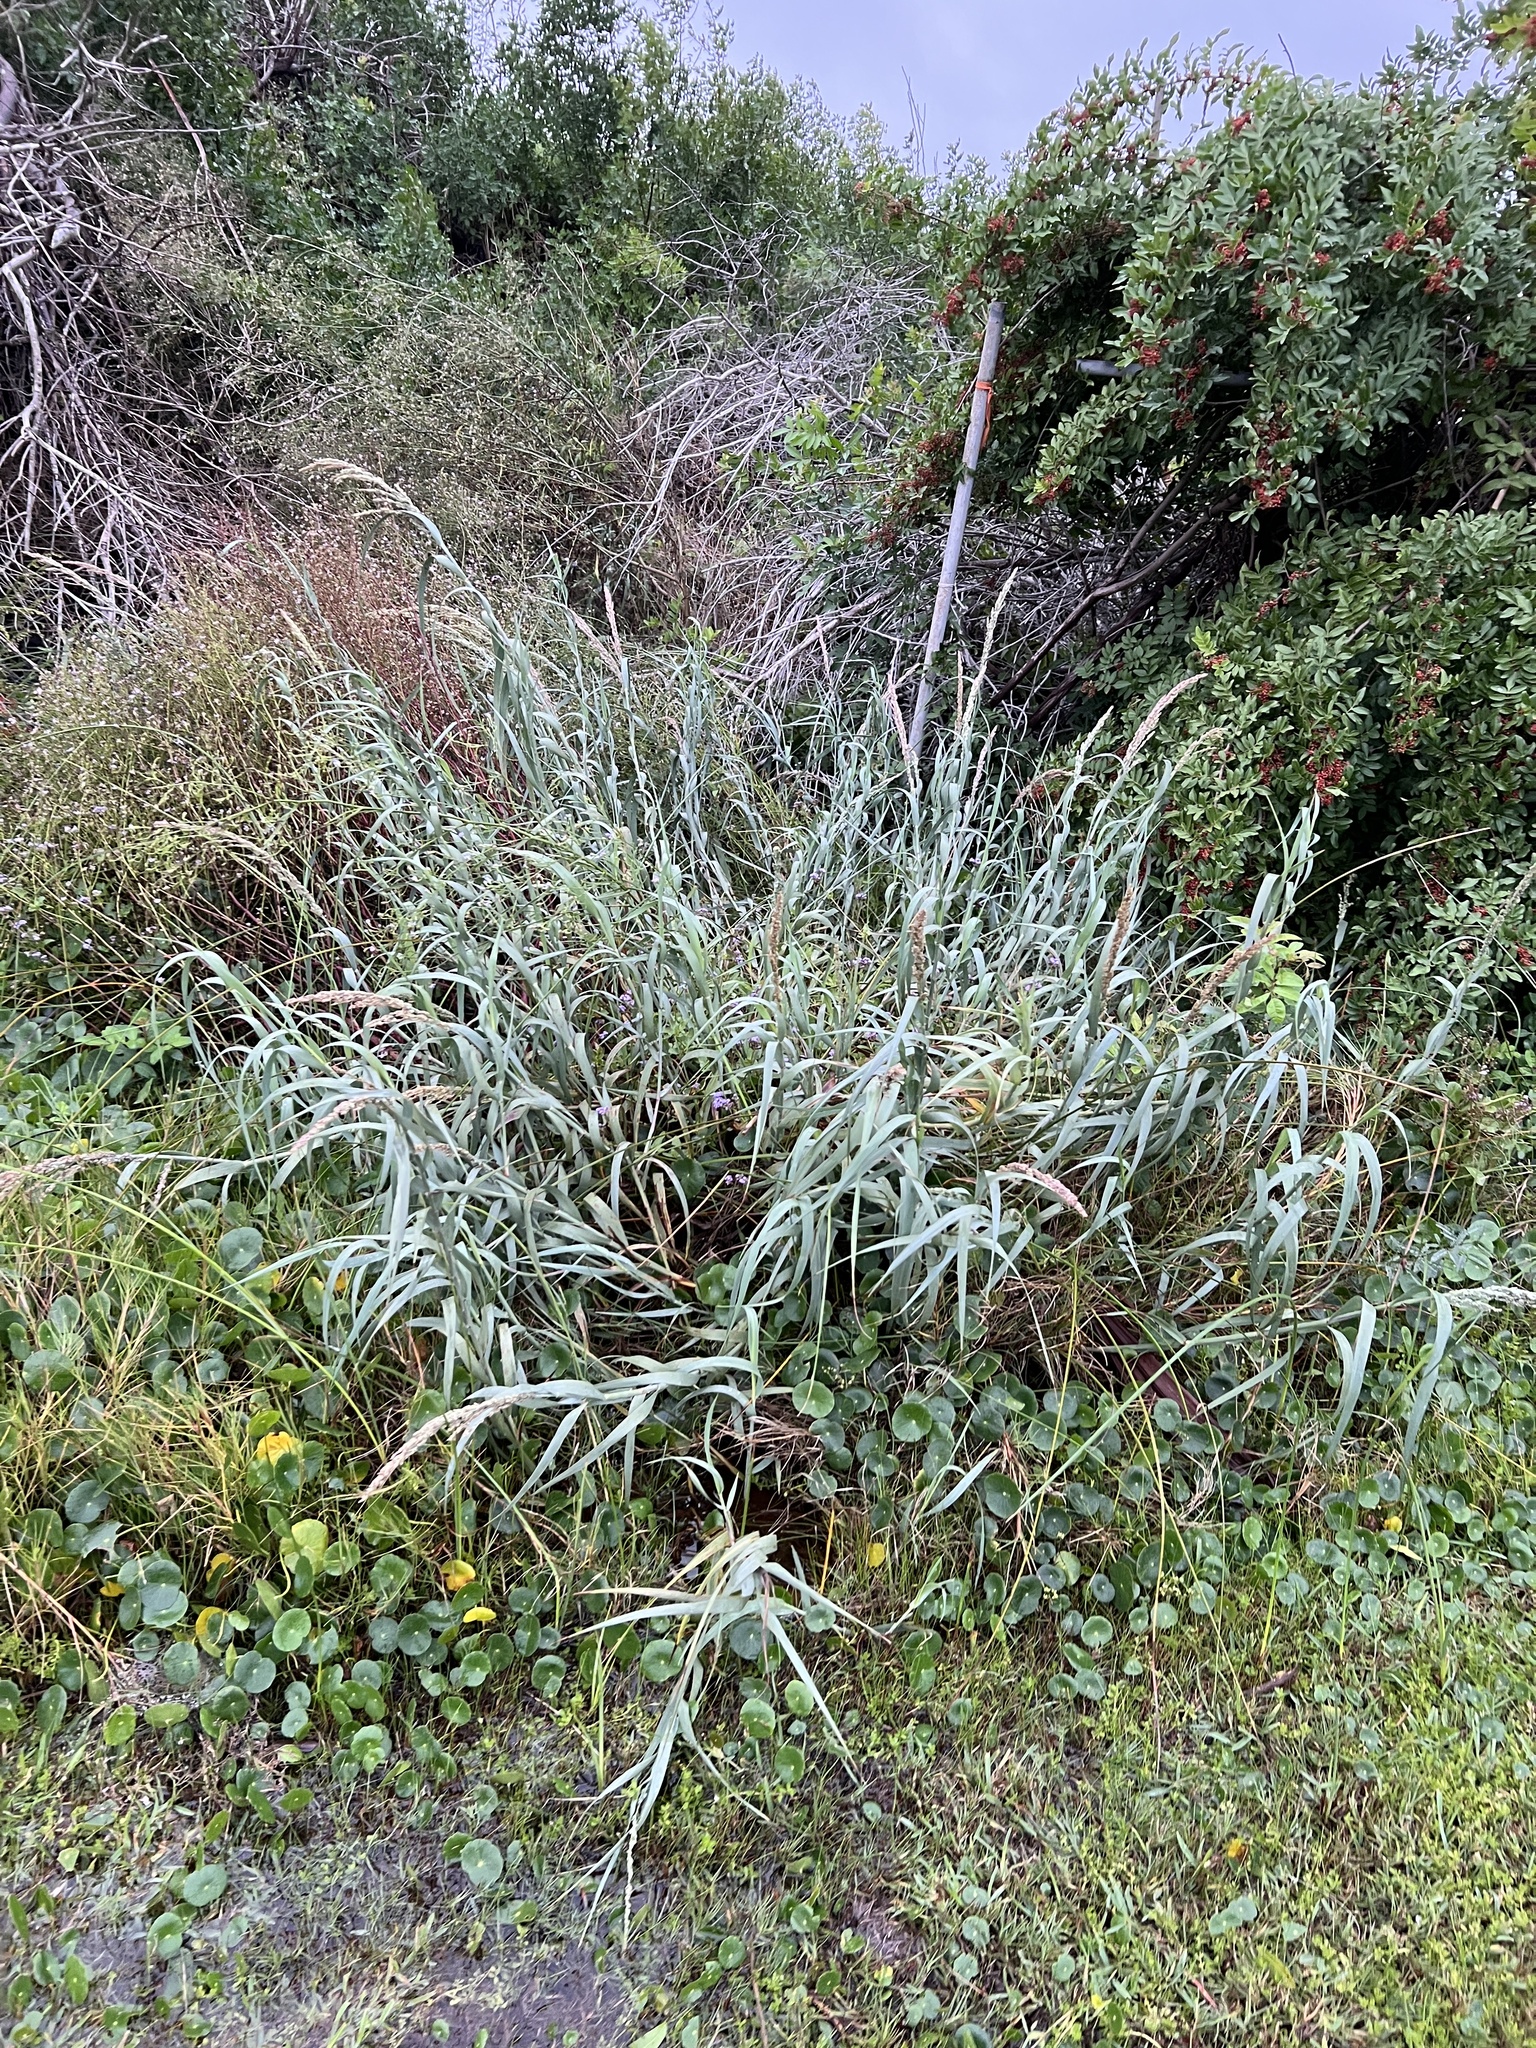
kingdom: Plantae
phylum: Tracheophyta
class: Liliopsida
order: Poales
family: Poaceae
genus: Panicum
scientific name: Panicum amarum
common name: Bitter panicum
